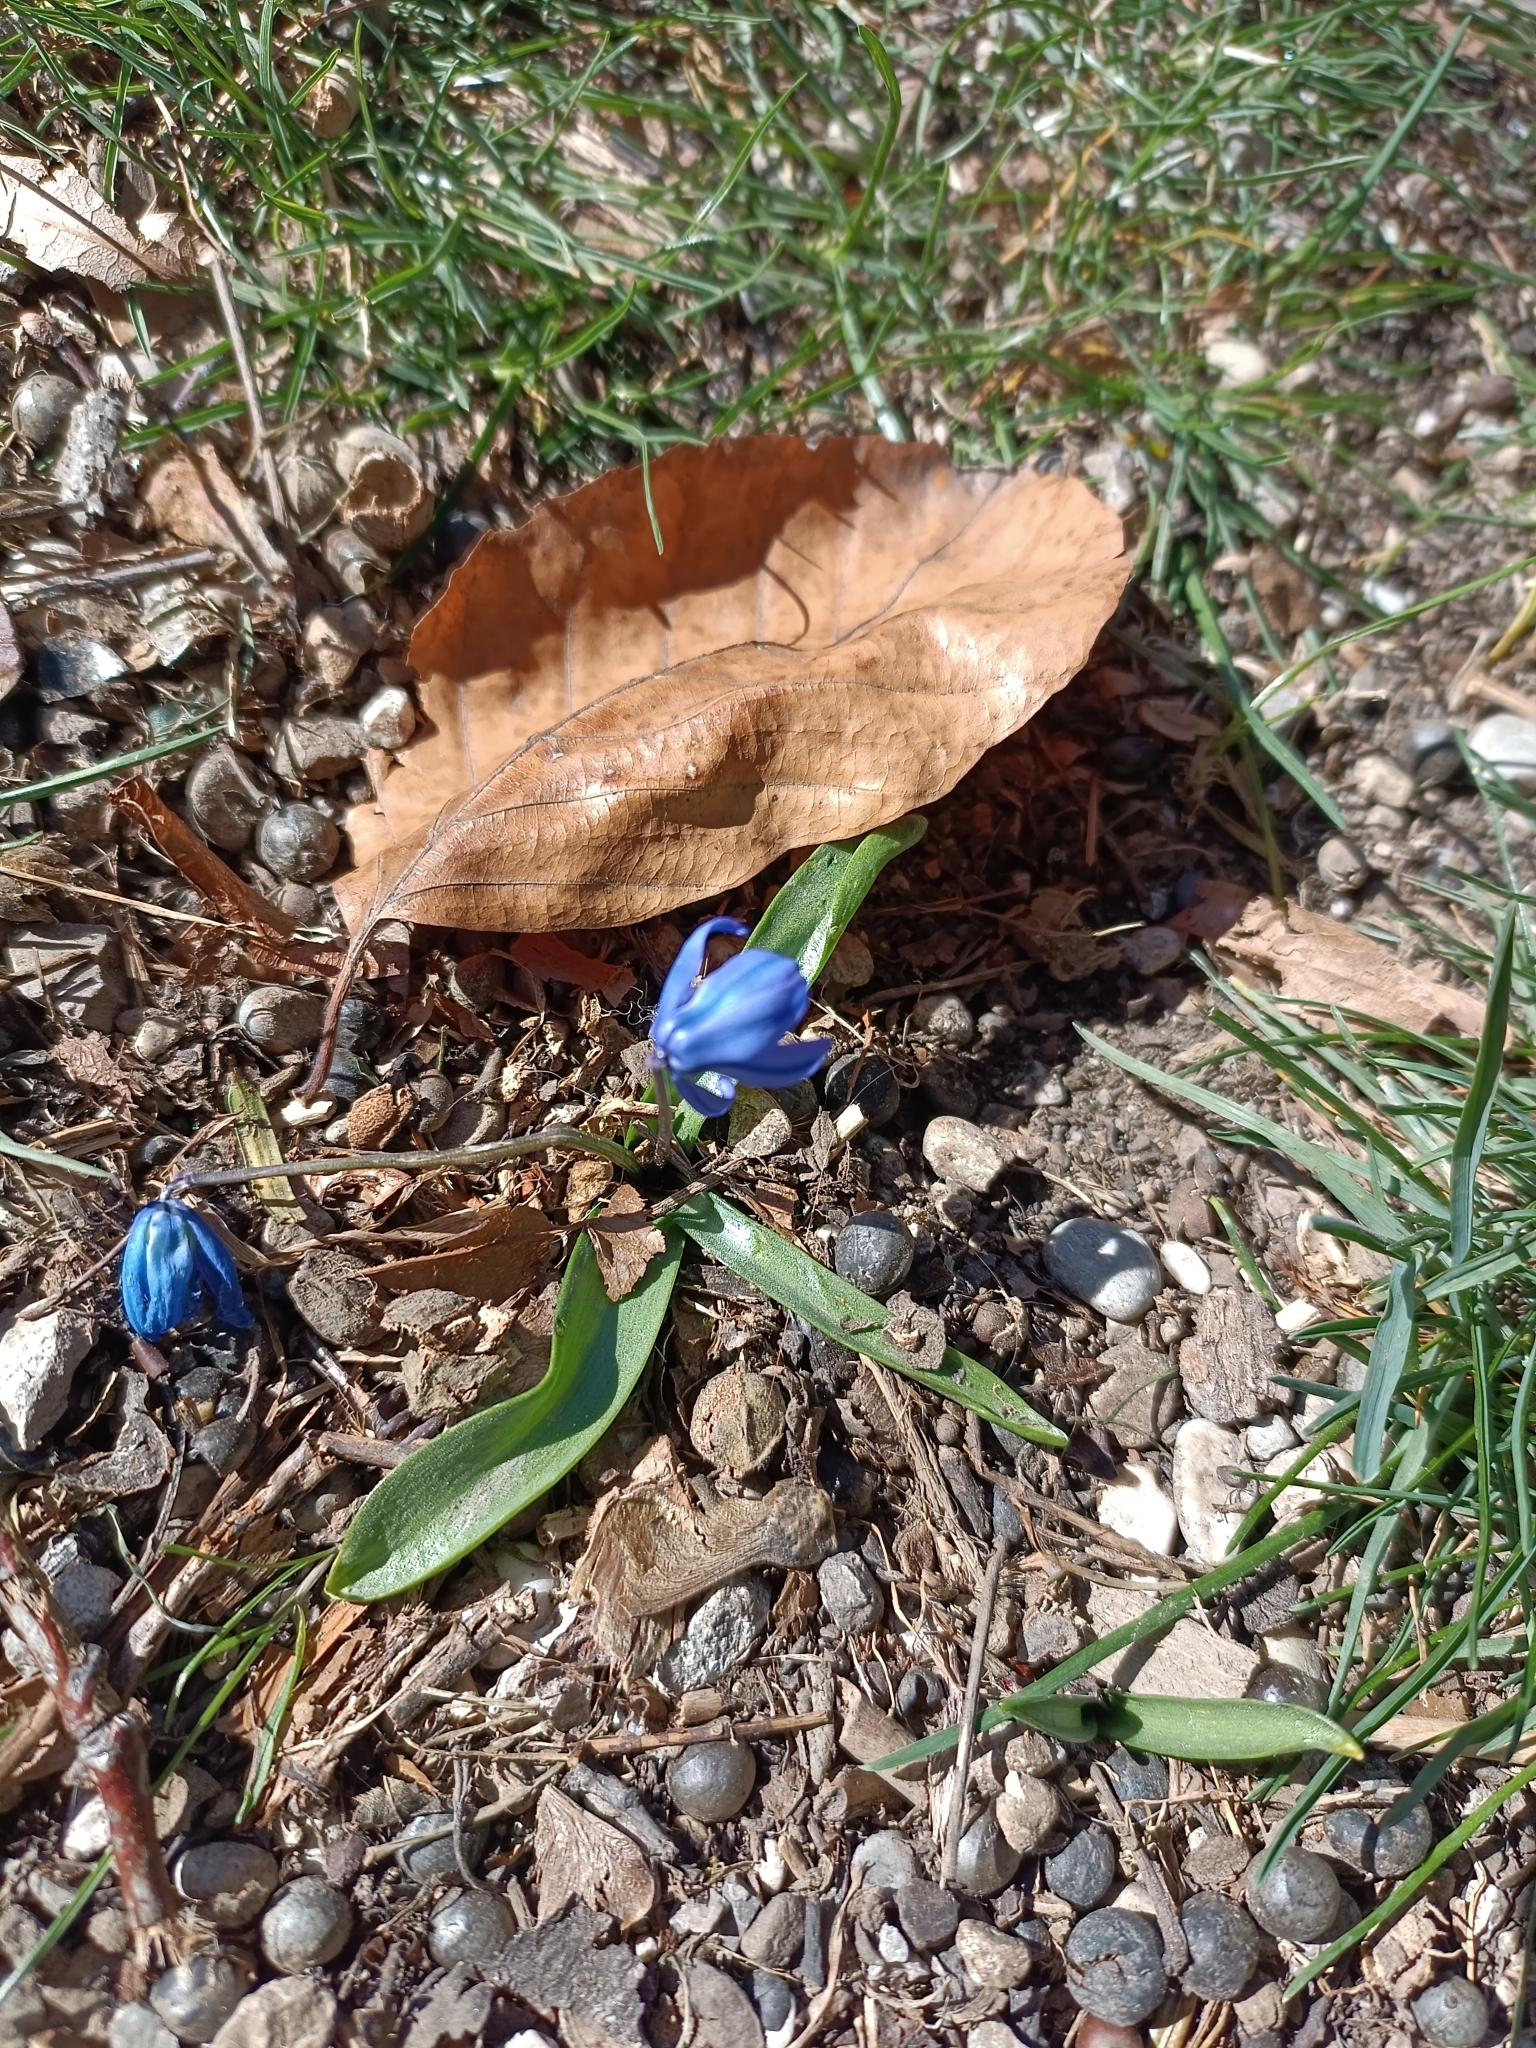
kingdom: Plantae
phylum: Tracheophyta
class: Liliopsida
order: Asparagales
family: Asparagaceae
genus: Scilla
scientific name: Scilla siberica
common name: Siberian squill
